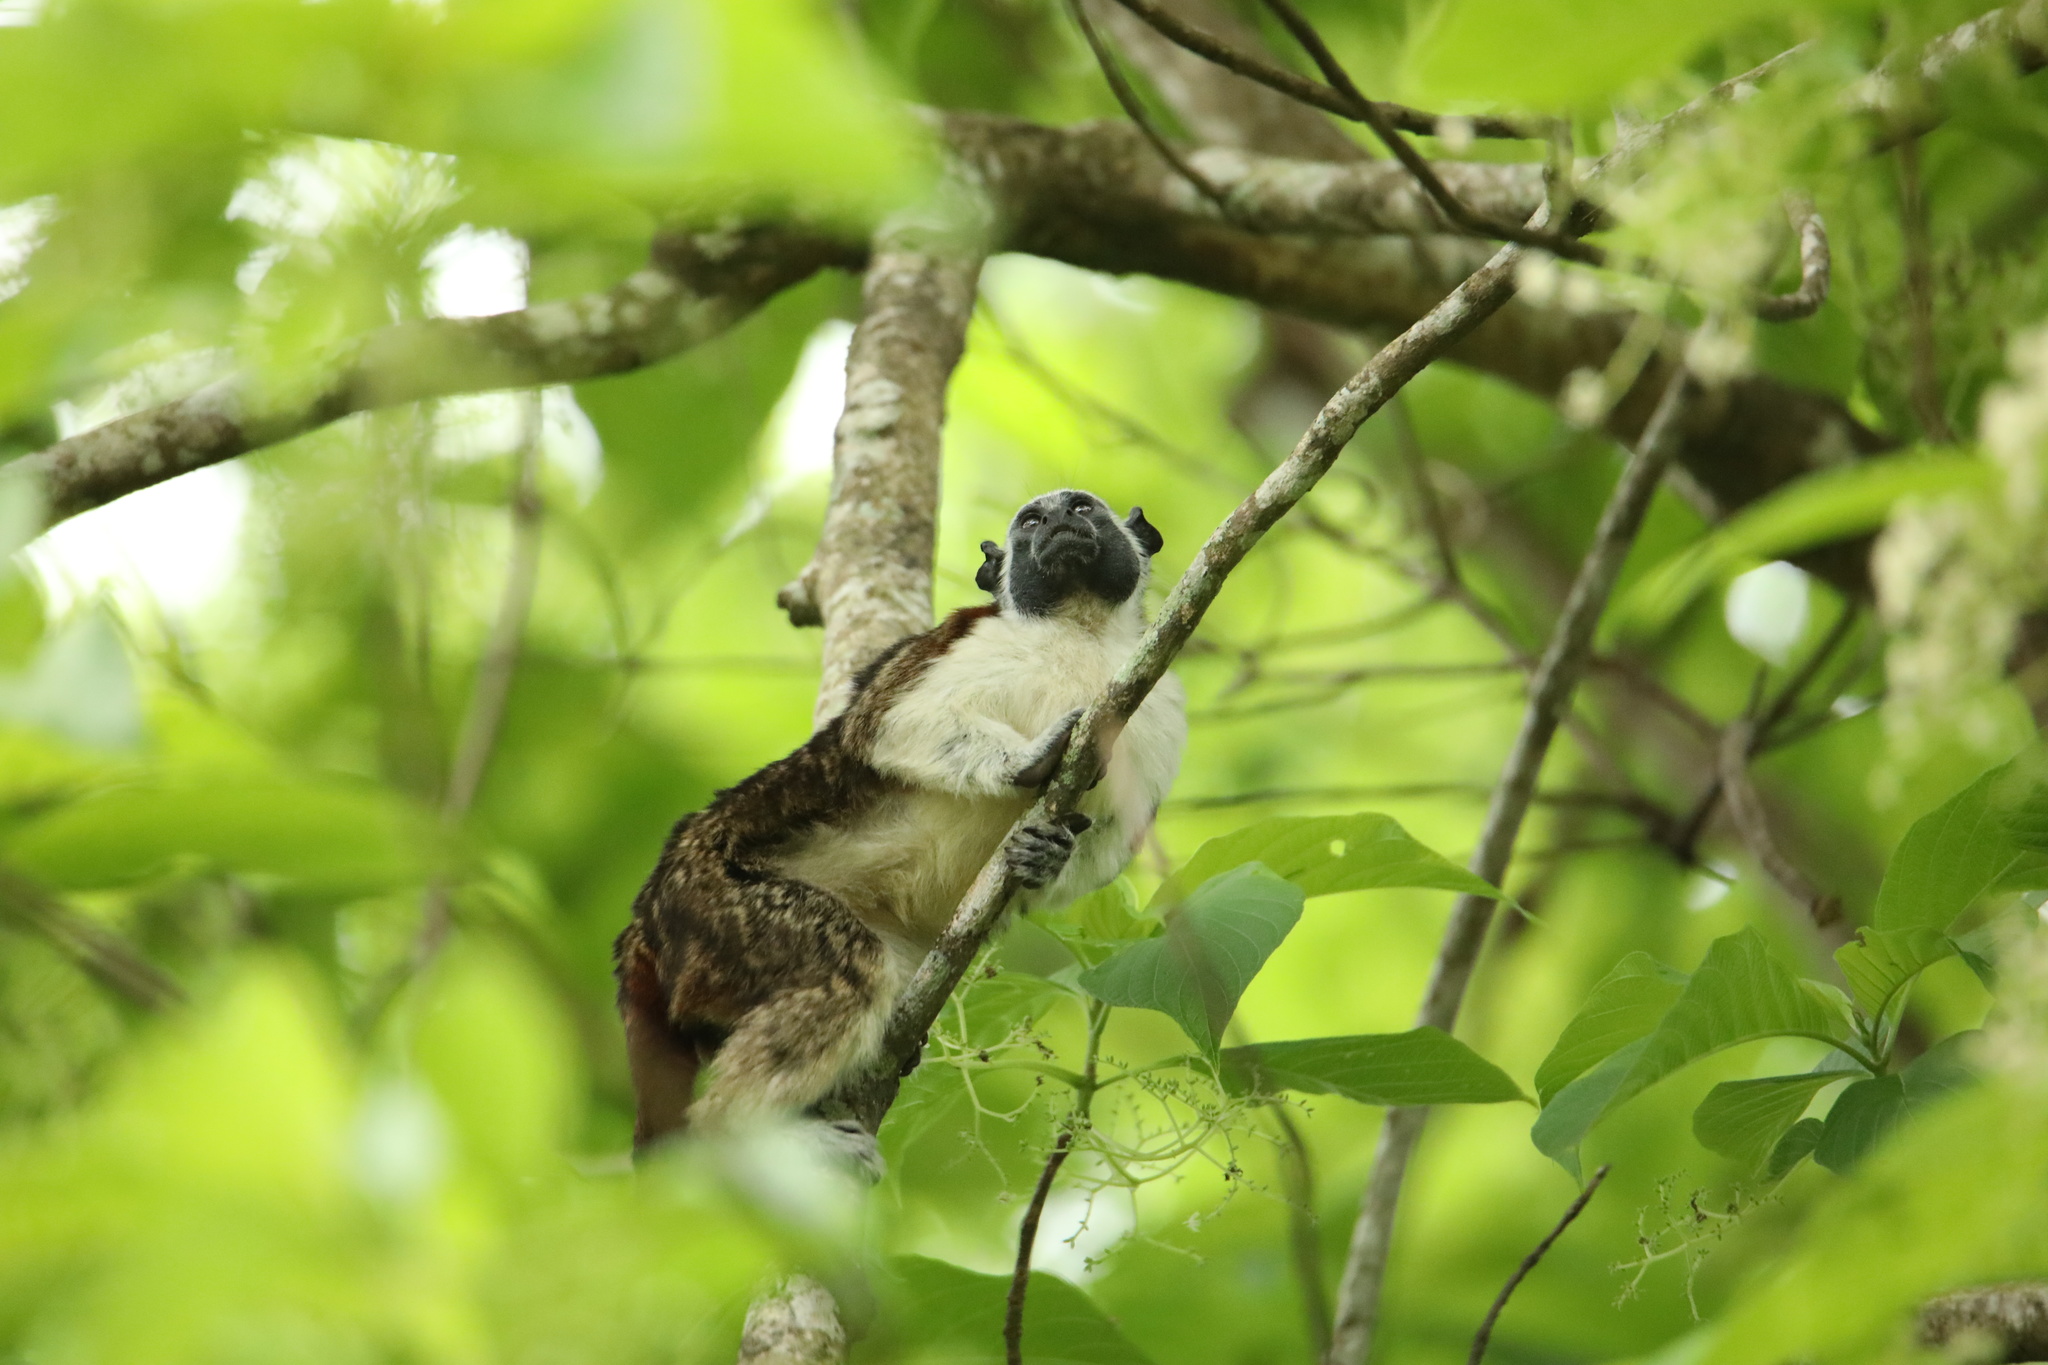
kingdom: Animalia
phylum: Chordata
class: Mammalia
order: Primates
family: Callitrichidae
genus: Saguinus
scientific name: Saguinus geoffroyi
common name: Geoffroy s tamarin
